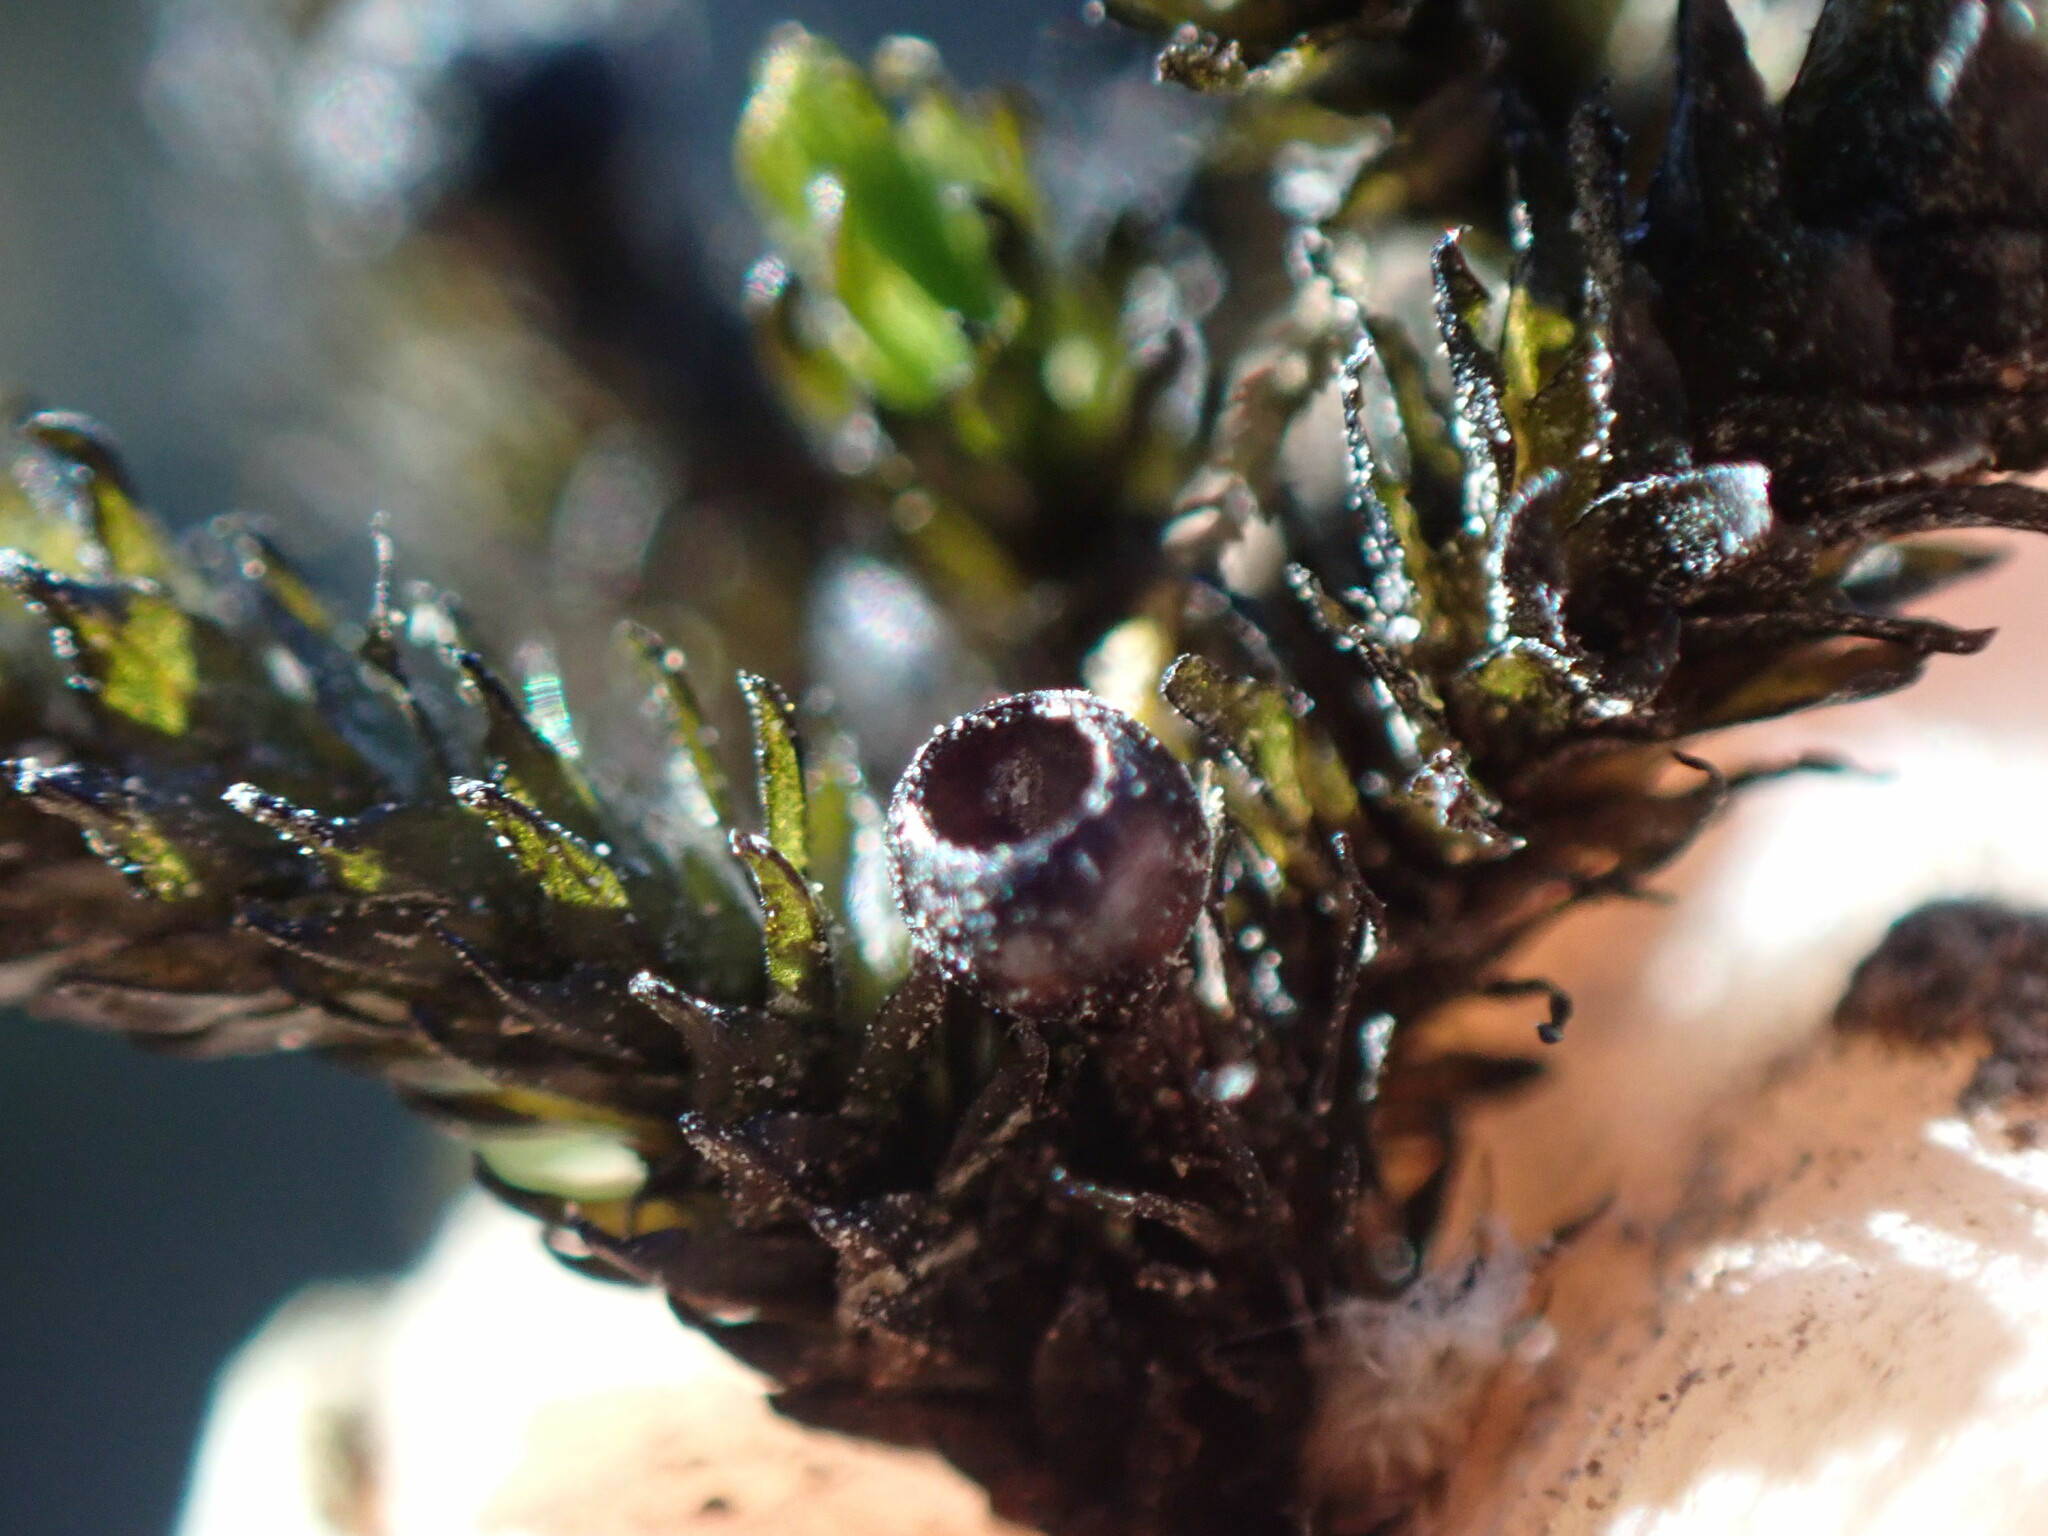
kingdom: Plantae
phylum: Bryophyta
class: Bryopsida
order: Scouleriales
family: Scouleriaceae
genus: Scouleria
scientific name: Scouleria aquatica
